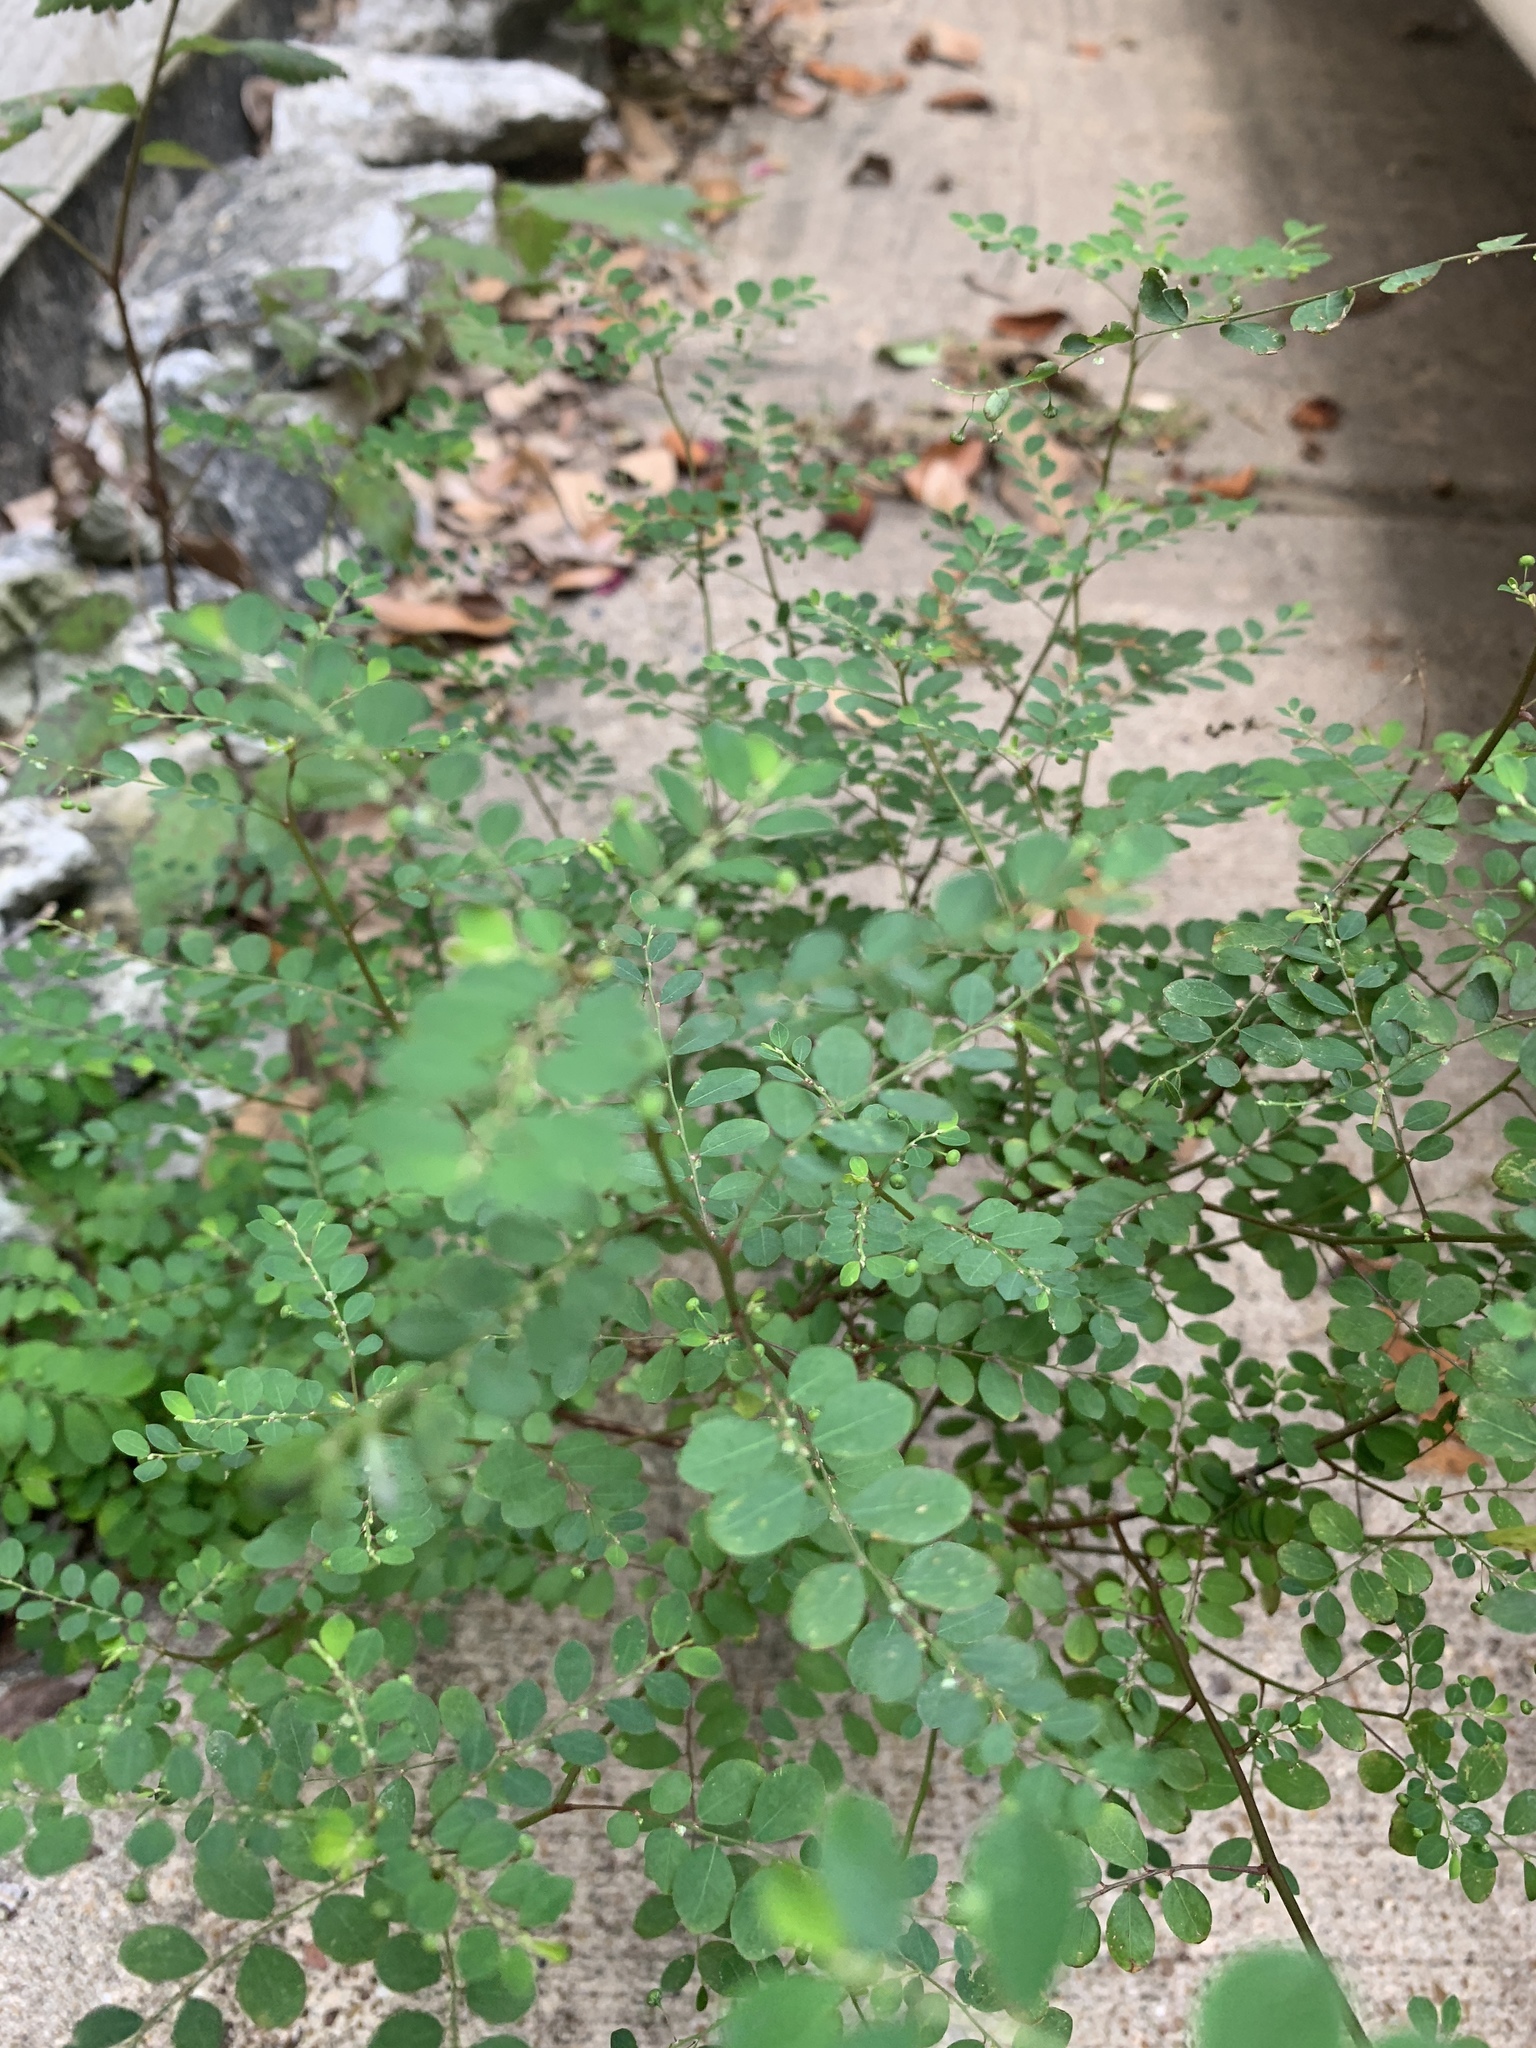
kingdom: Plantae
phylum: Tracheophyta
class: Magnoliopsida
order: Malpighiales
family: Phyllanthaceae
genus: Phyllanthus
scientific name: Phyllanthus tenellus
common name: Mascarene island leaf-flower
